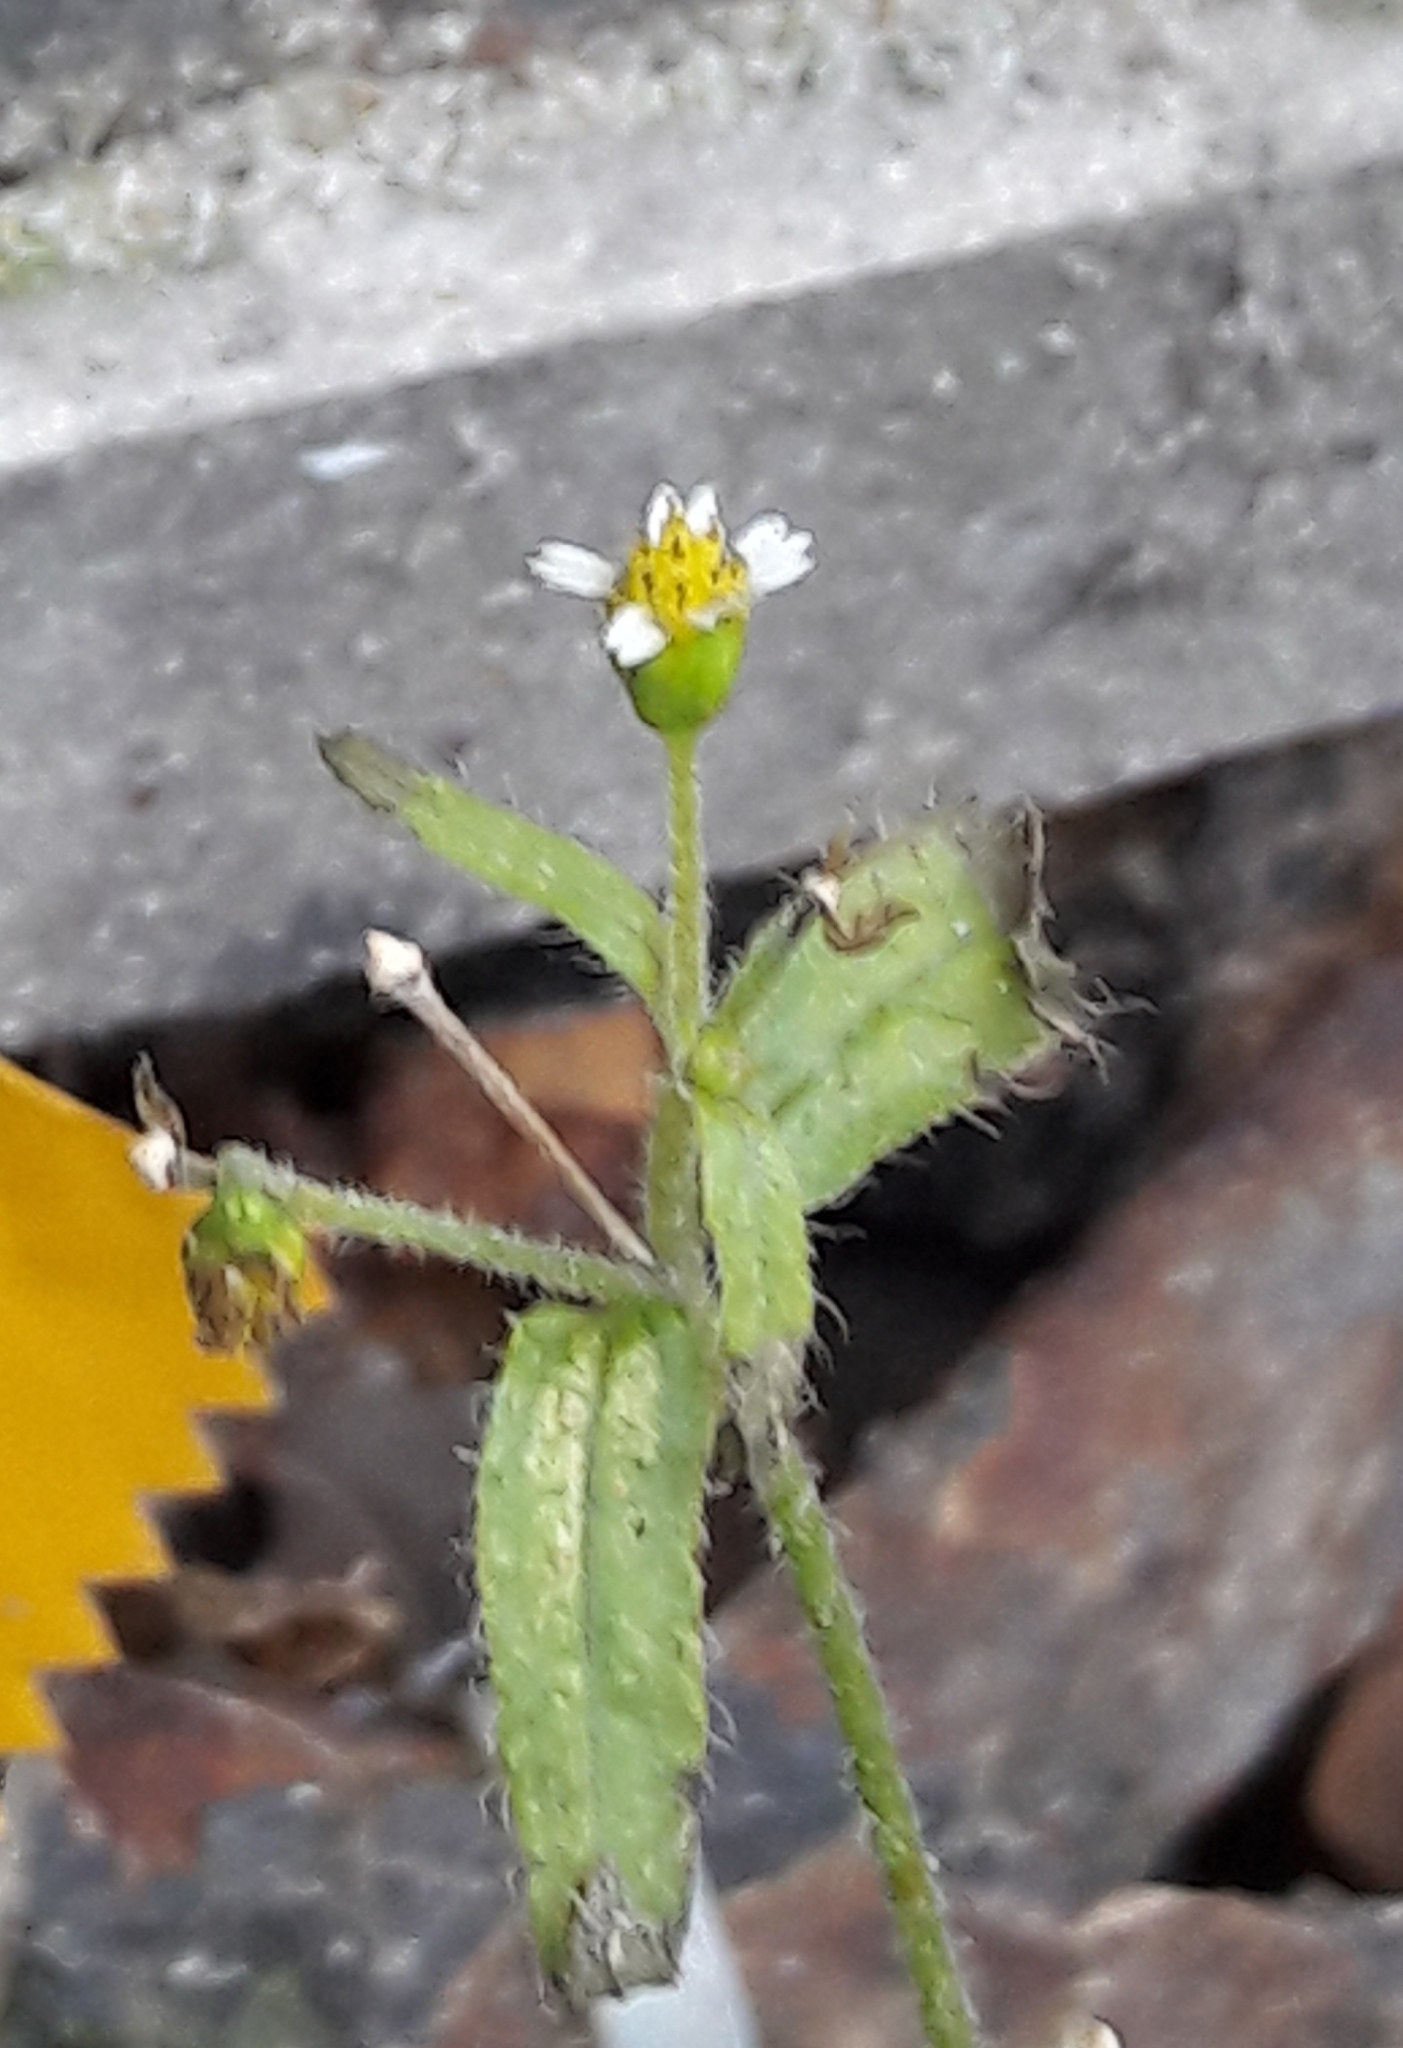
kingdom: Plantae
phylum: Tracheophyta
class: Magnoliopsida
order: Asterales
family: Asteraceae
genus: Galinsoga
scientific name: Galinsoga quadriradiata
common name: Shaggy soldier
